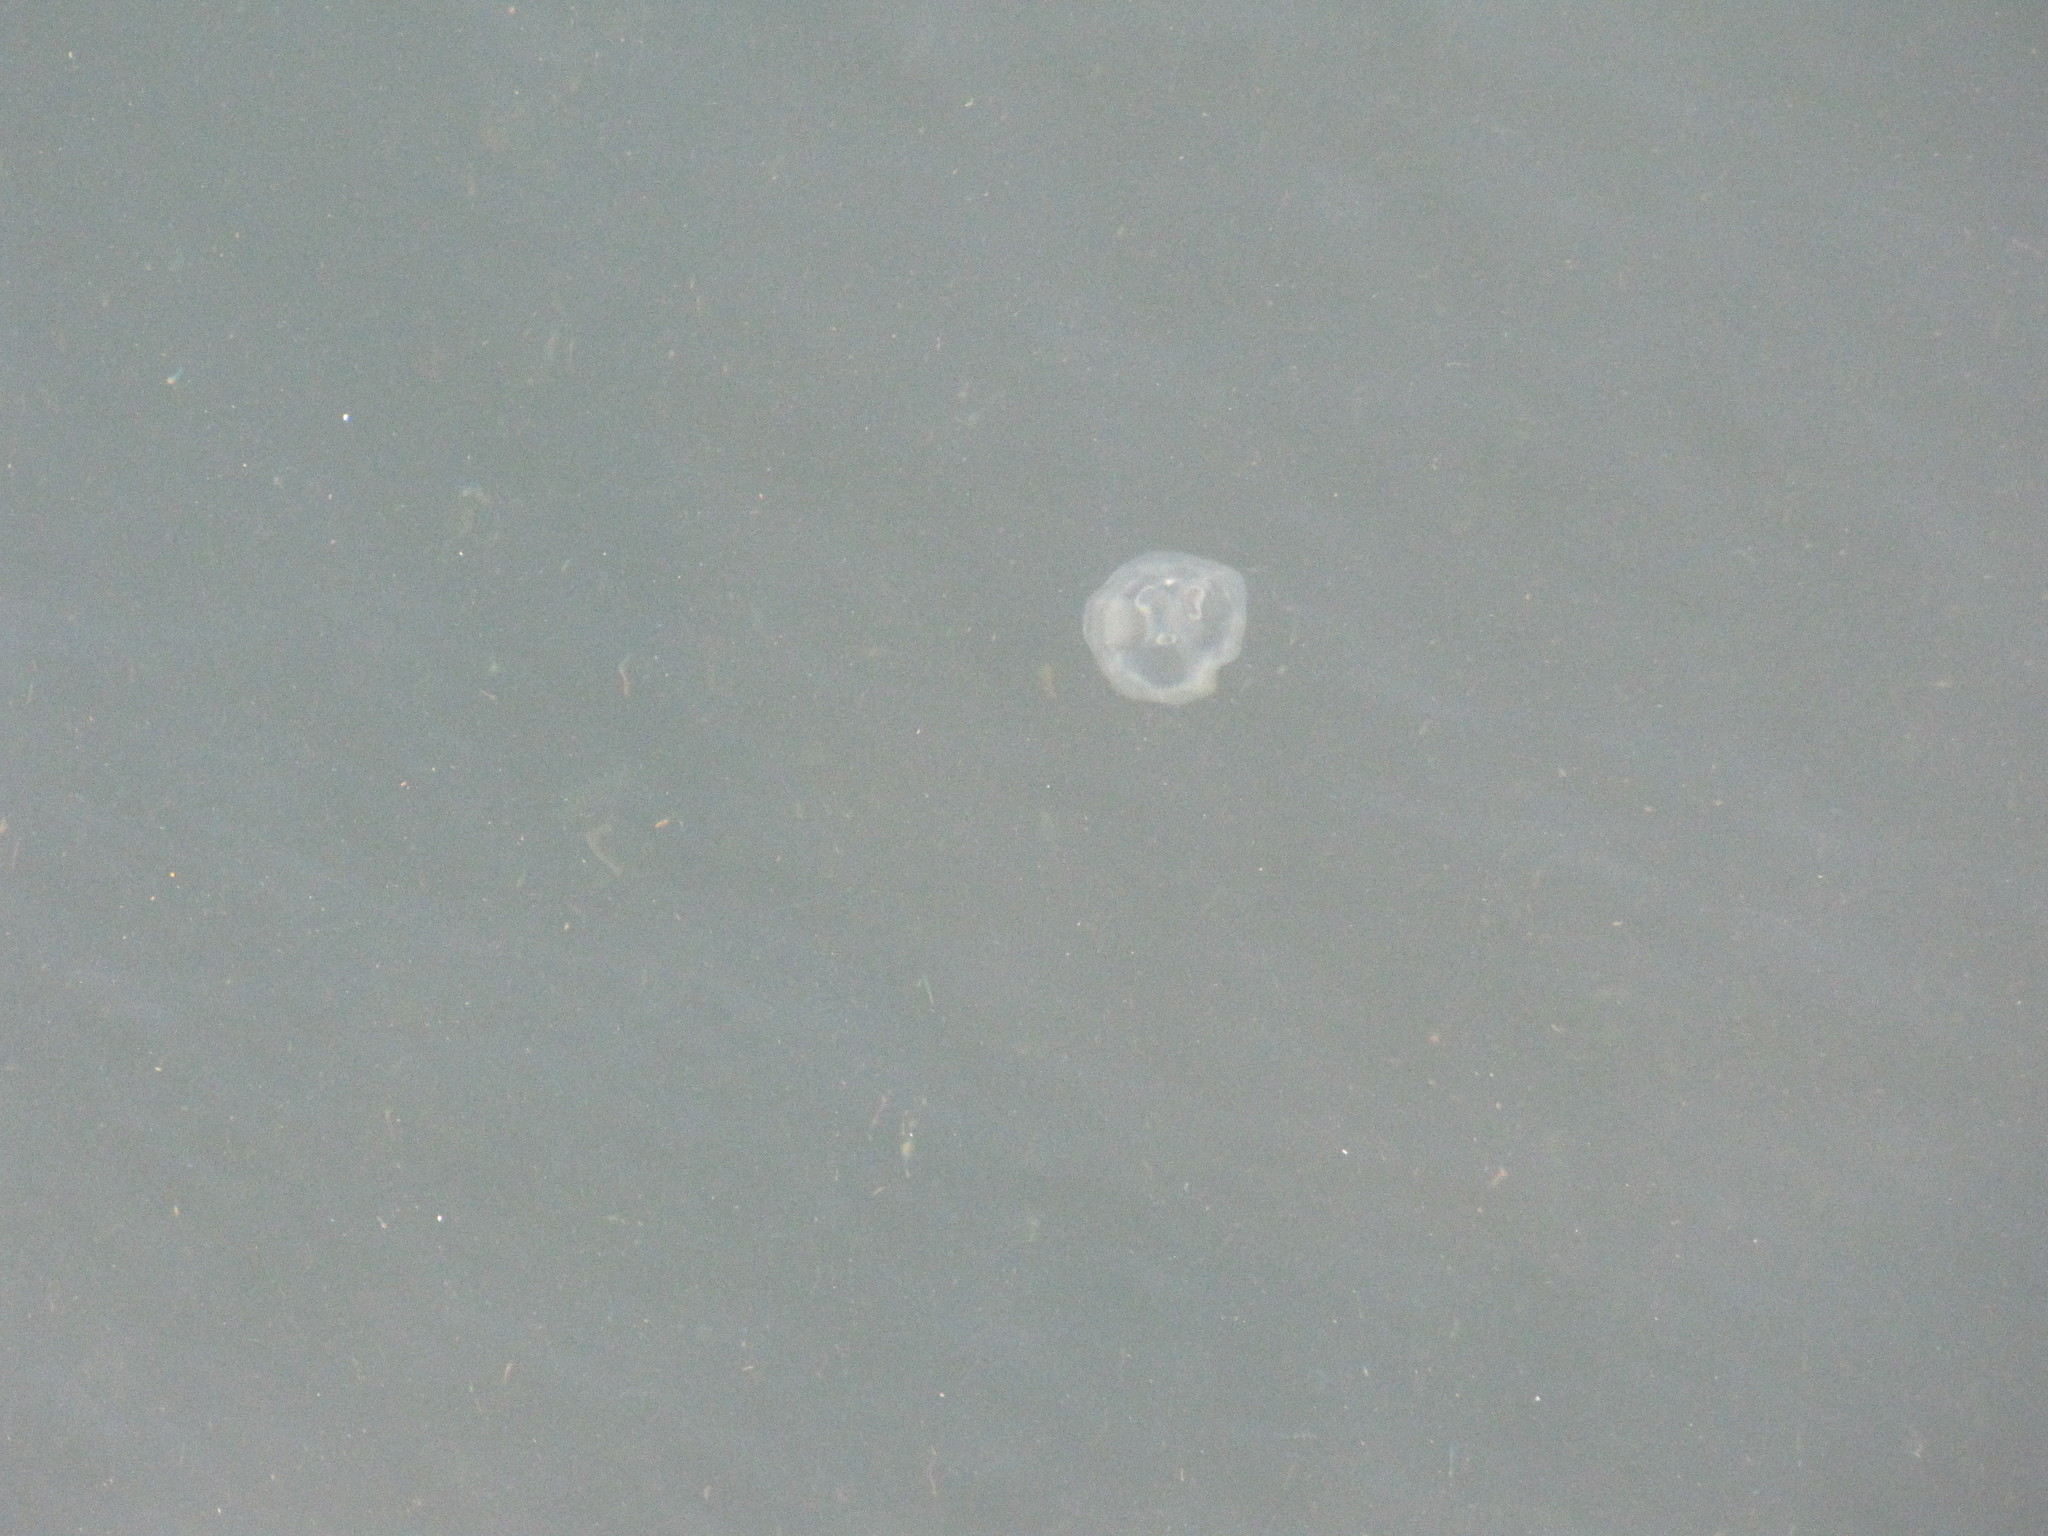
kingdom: Animalia
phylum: Cnidaria
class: Scyphozoa
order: Semaeostomeae
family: Ulmaridae
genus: Aurelia
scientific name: Aurelia labiata
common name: Pacific moon jelly
